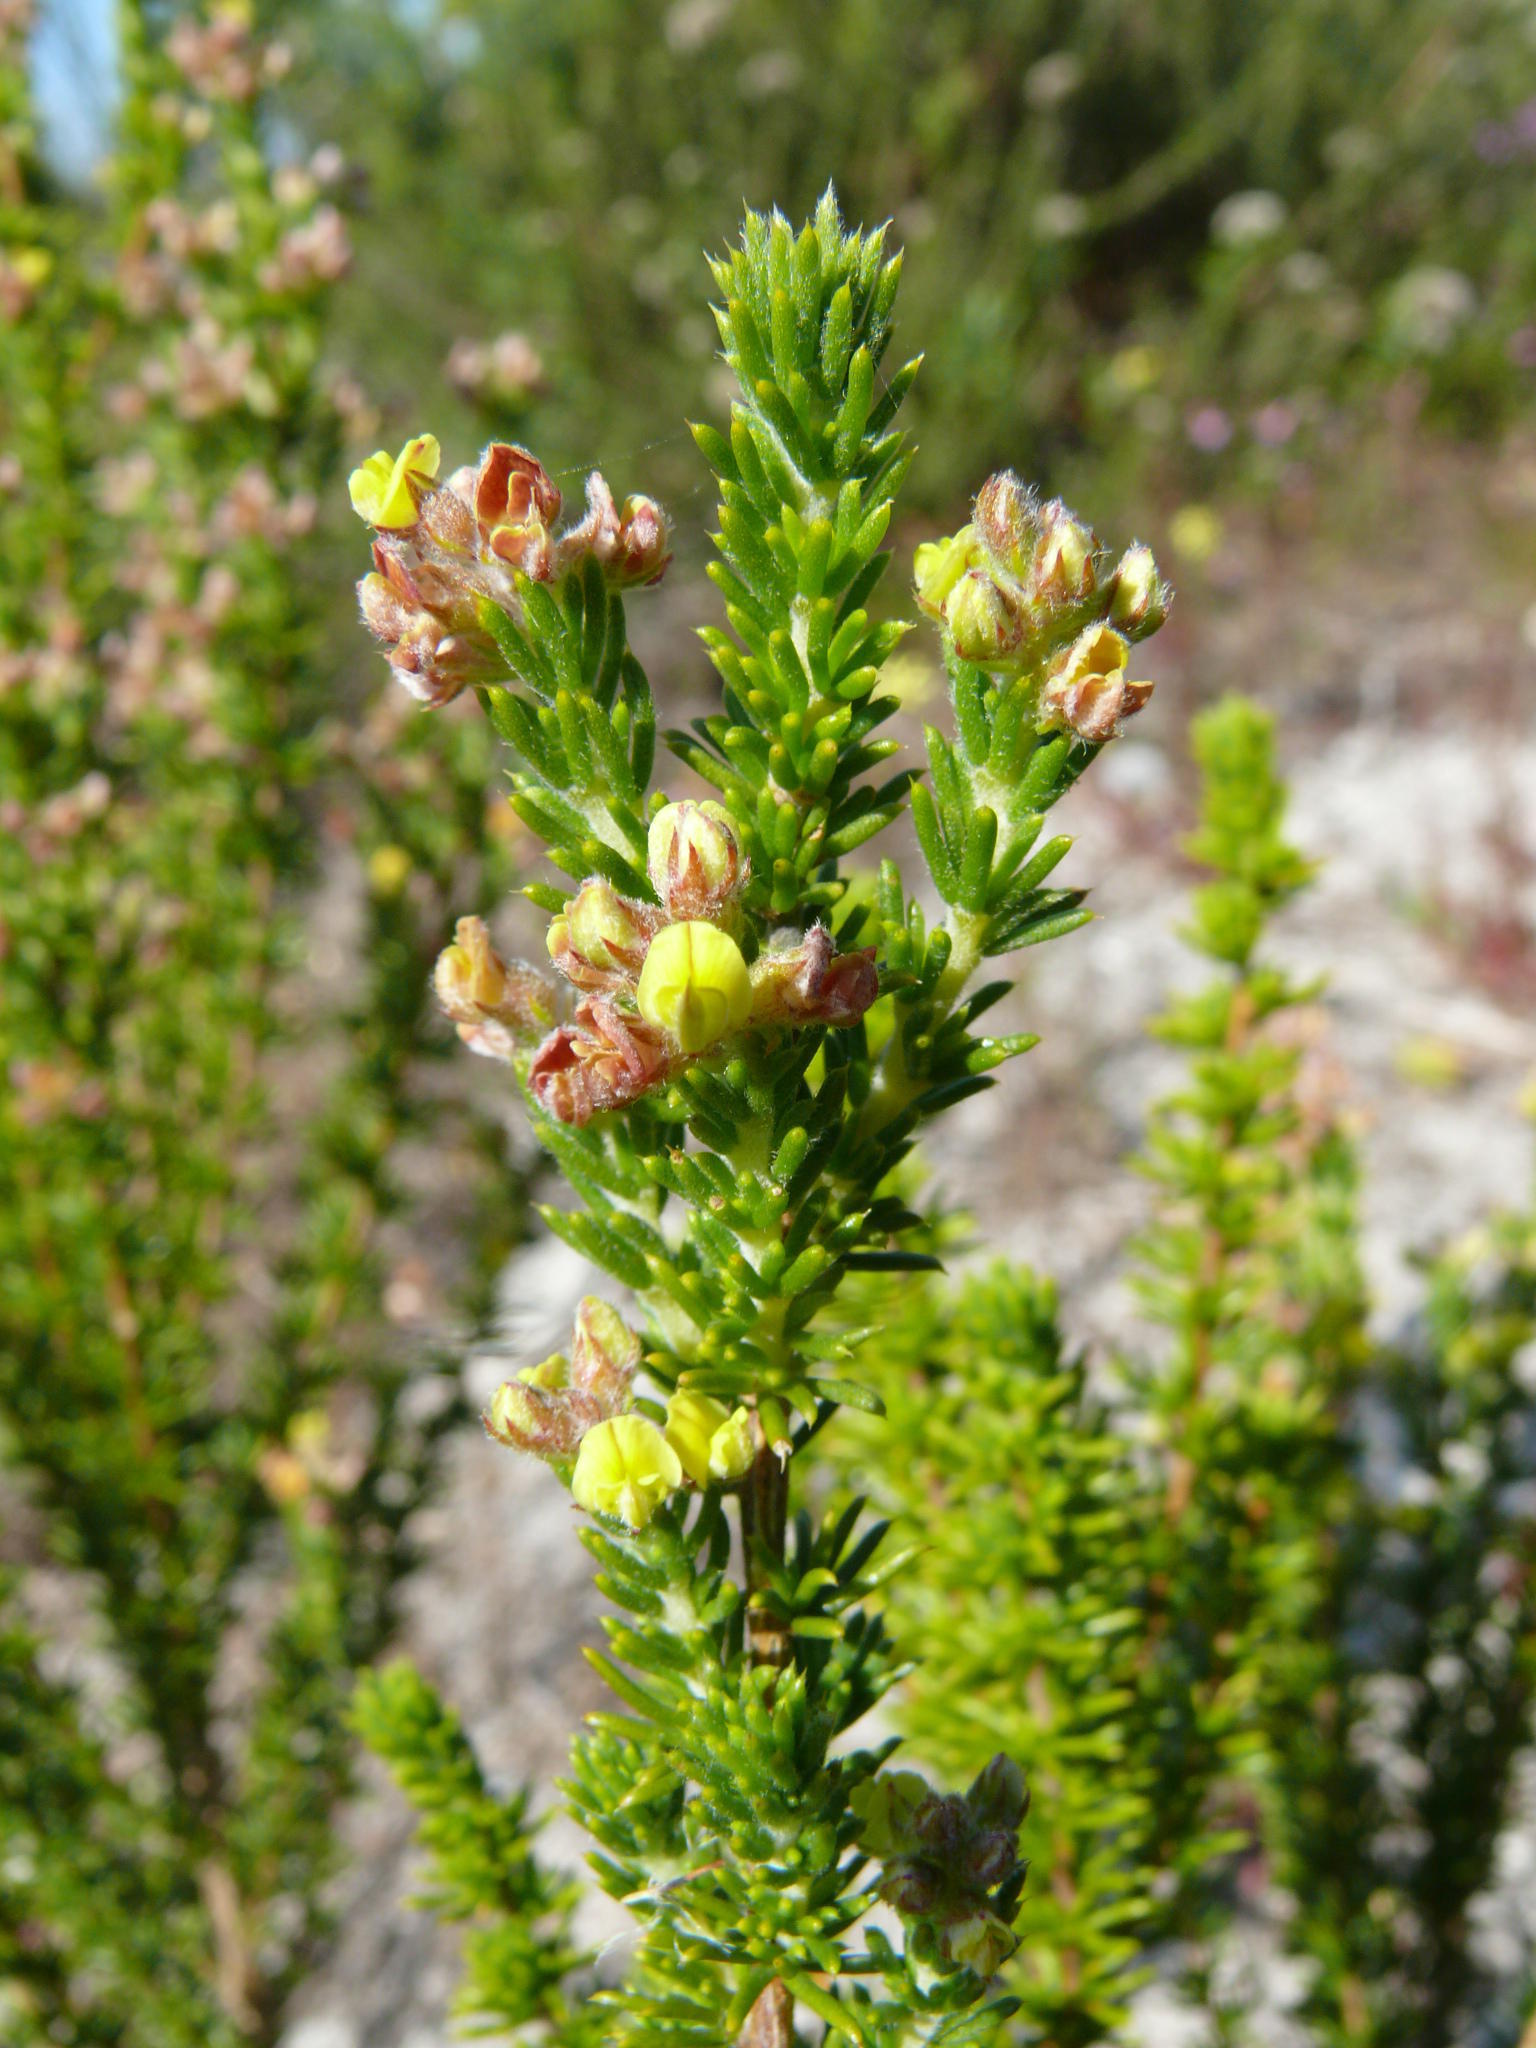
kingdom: Plantae
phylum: Tracheophyta
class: Magnoliopsida
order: Fabales
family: Fabaceae
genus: Aspalathus
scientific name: Aspalathus albens
